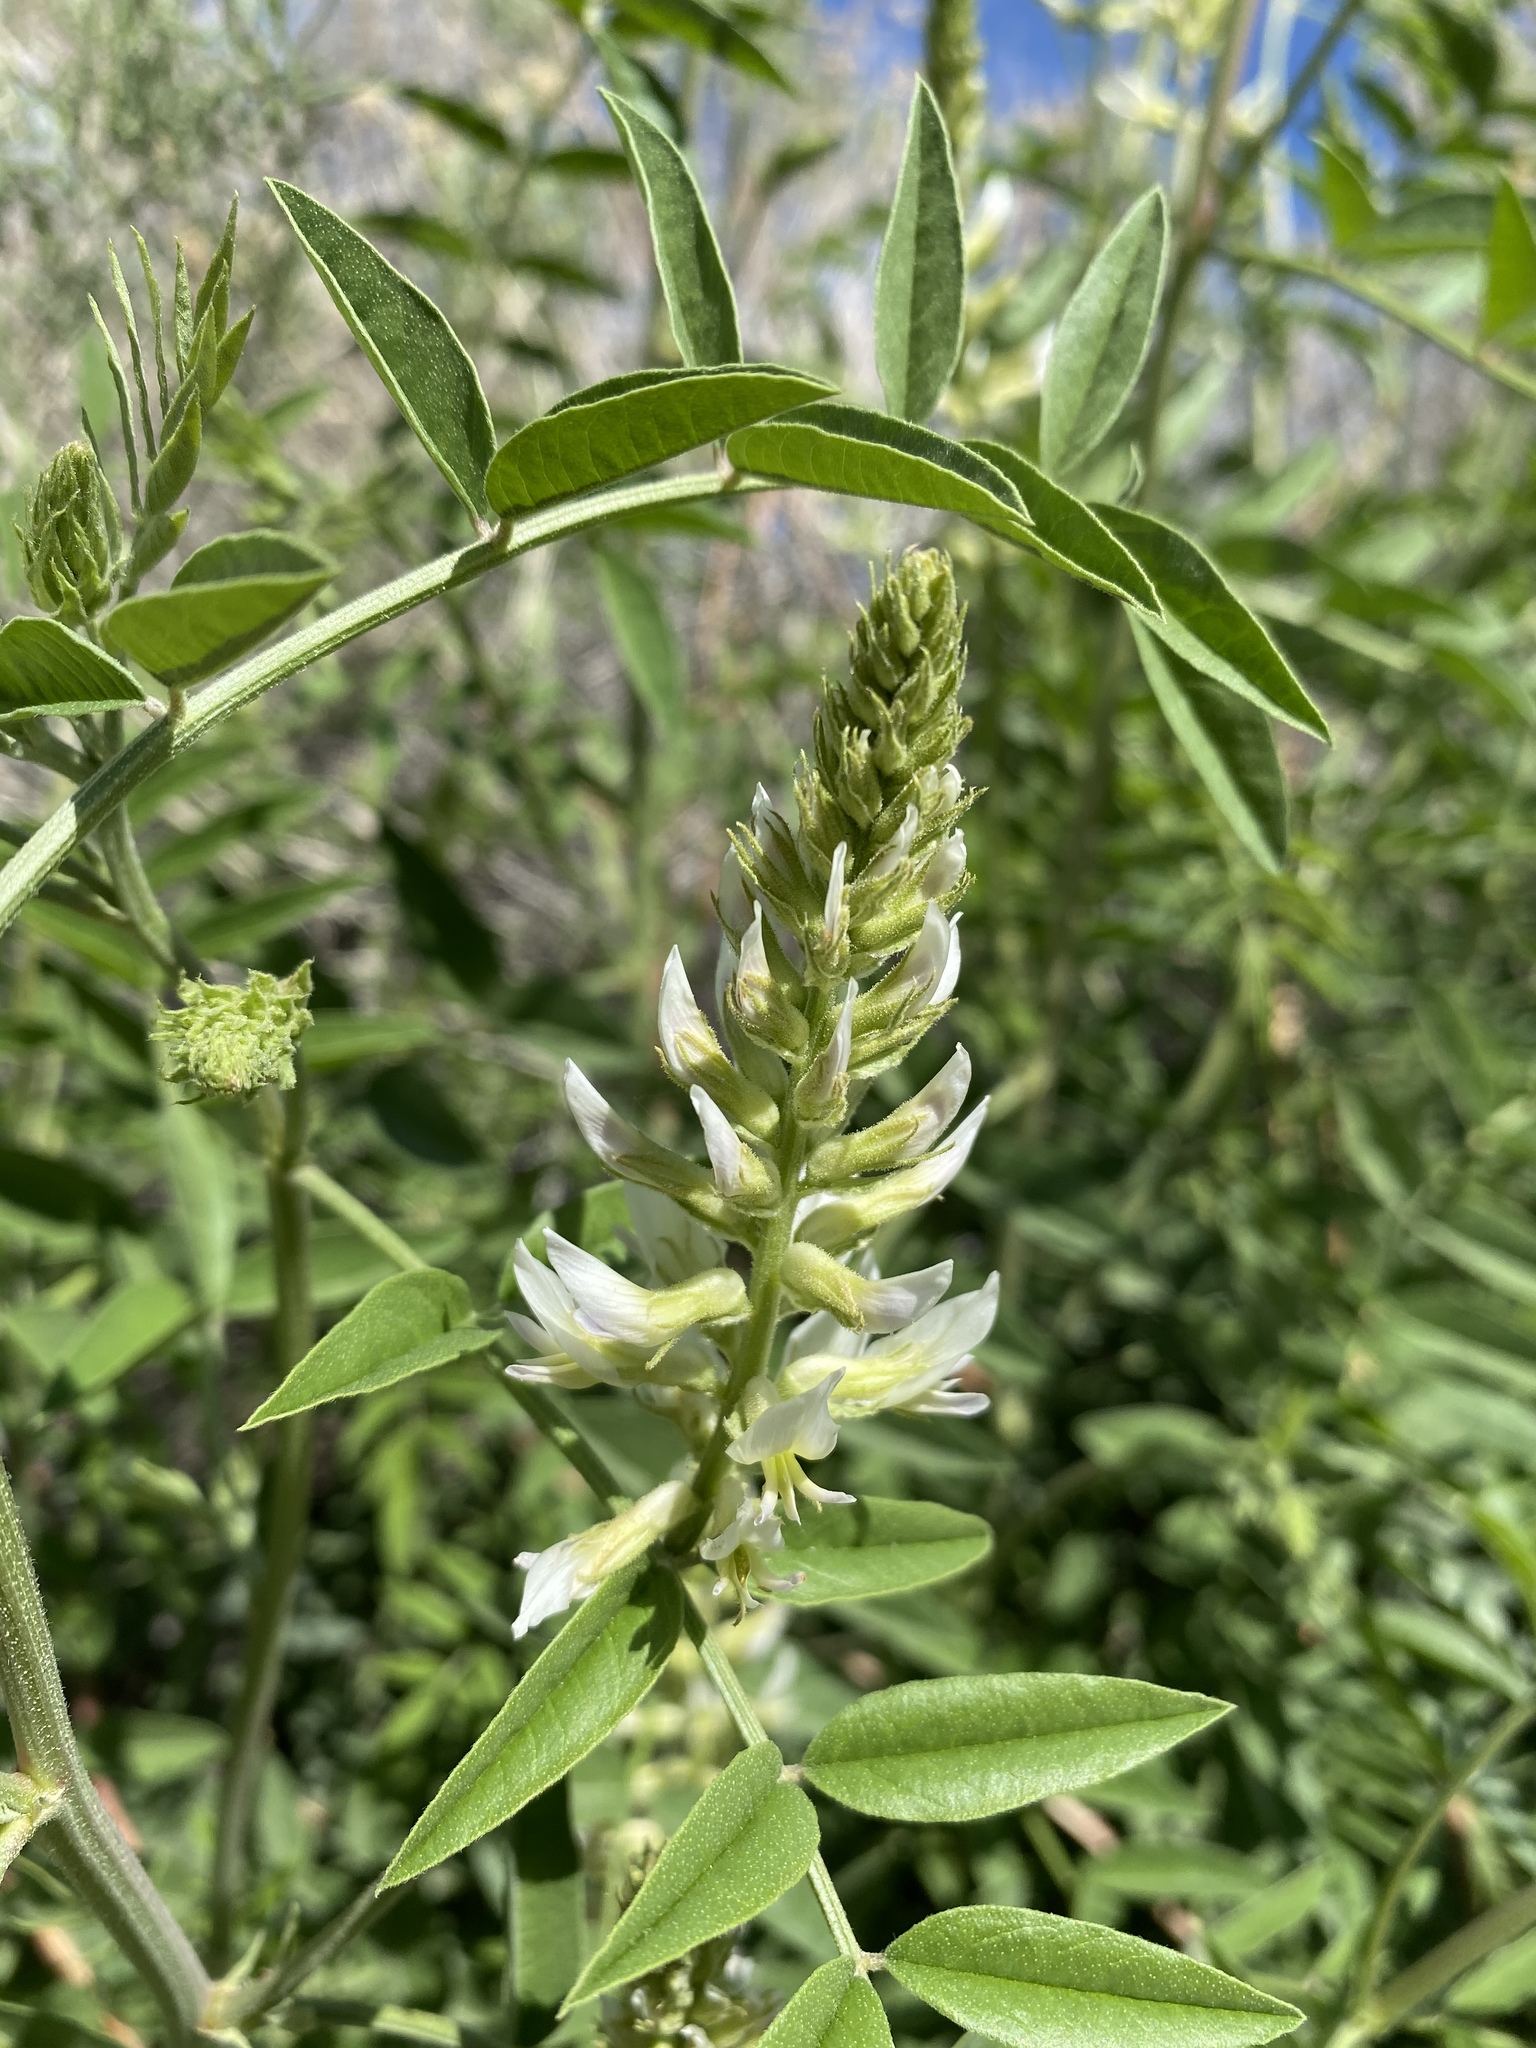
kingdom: Plantae
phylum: Tracheophyta
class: Magnoliopsida
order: Fabales
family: Fabaceae
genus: Glycyrrhiza
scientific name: Glycyrrhiza lepidota
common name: American liquorice
